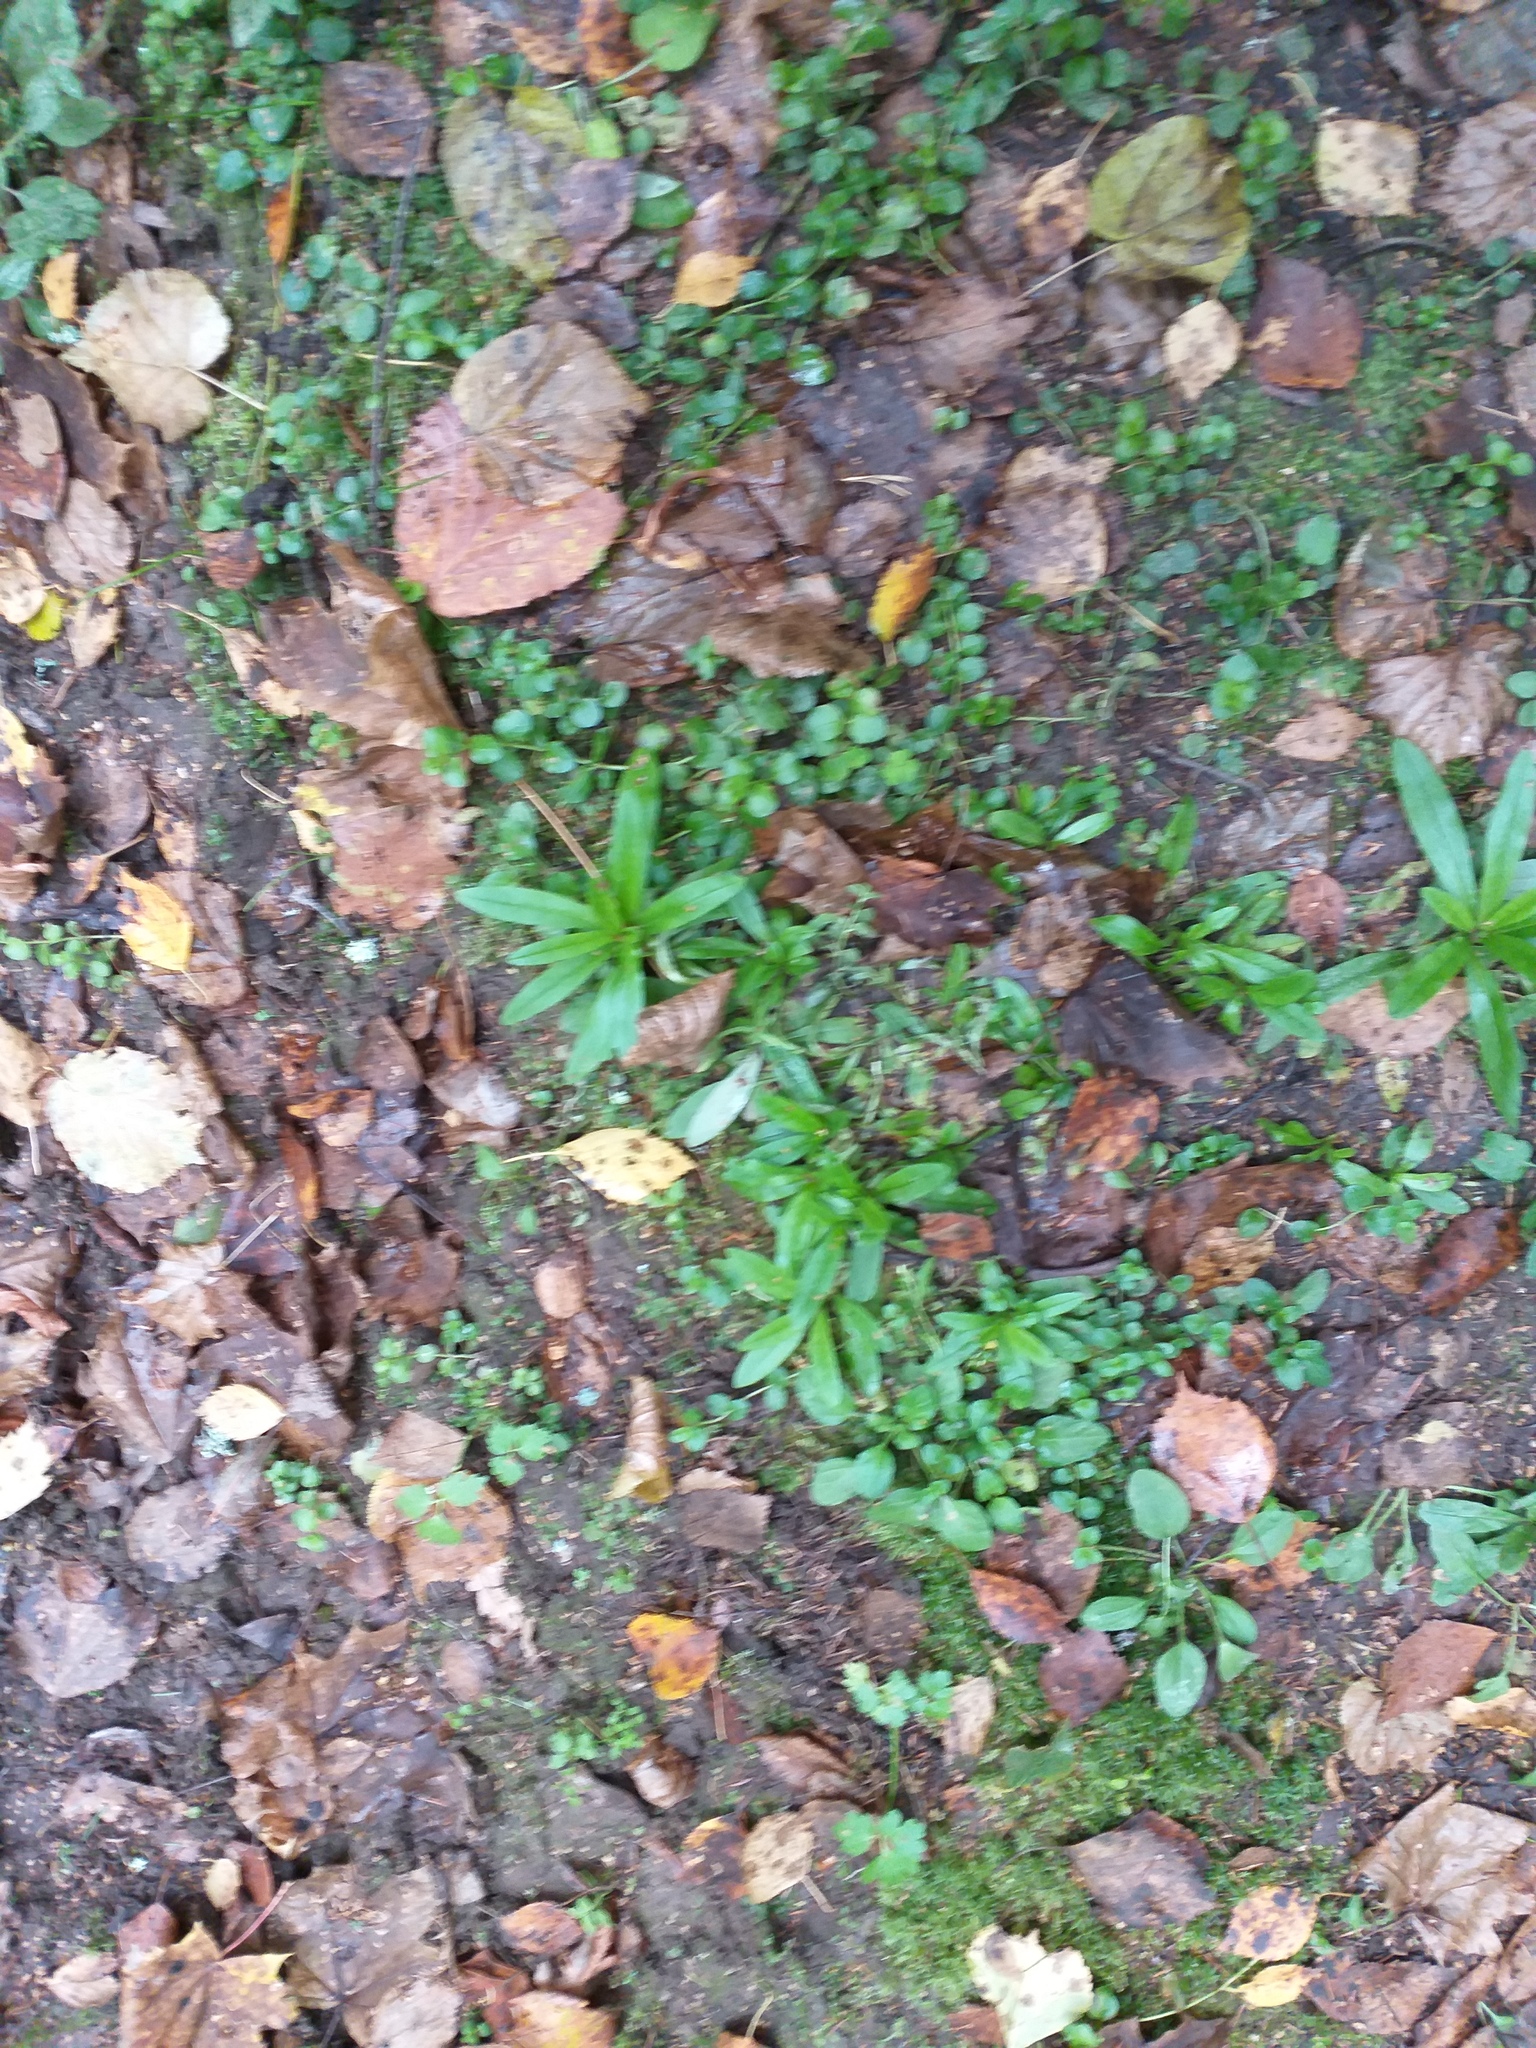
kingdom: Plantae
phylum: Tracheophyta
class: Magnoliopsida
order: Caryophyllales
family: Caryophyllaceae
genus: Silene
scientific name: Silene flos-cuculi
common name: Ragged-robin
